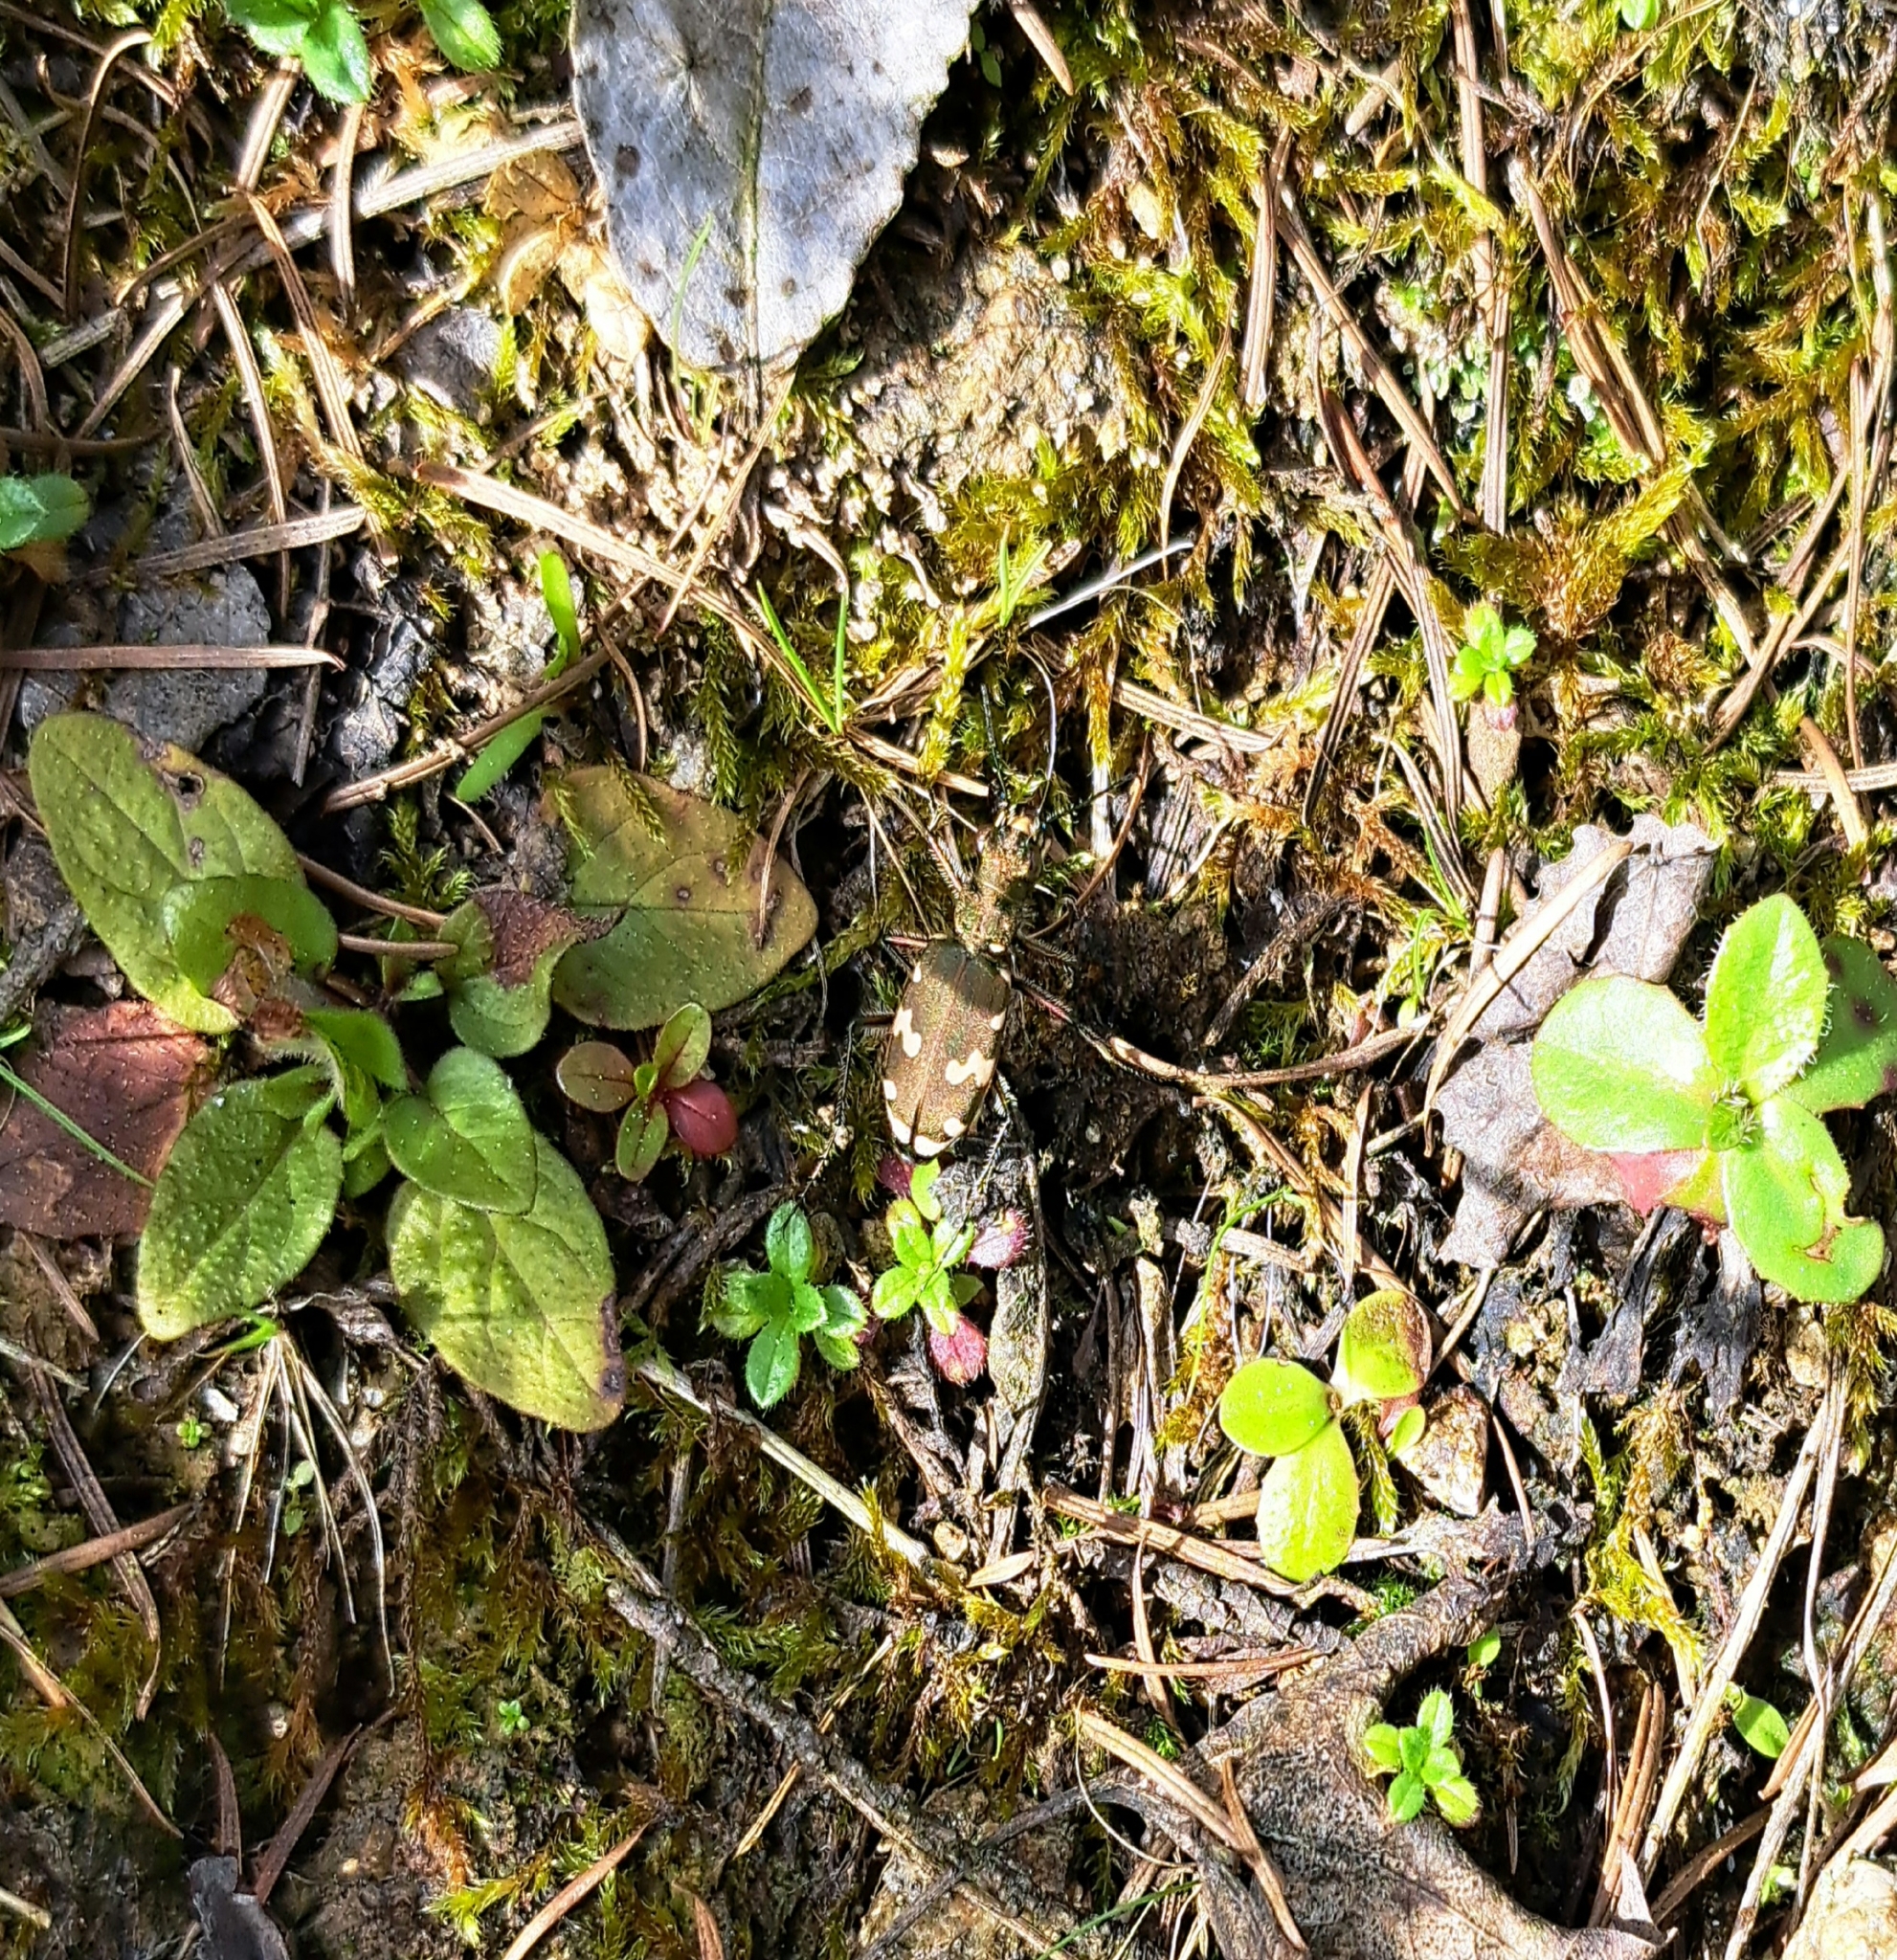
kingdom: Animalia
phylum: Arthropoda
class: Insecta
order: Coleoptera
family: Carabidae
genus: Cicindela
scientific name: Cicindela sylvicola
